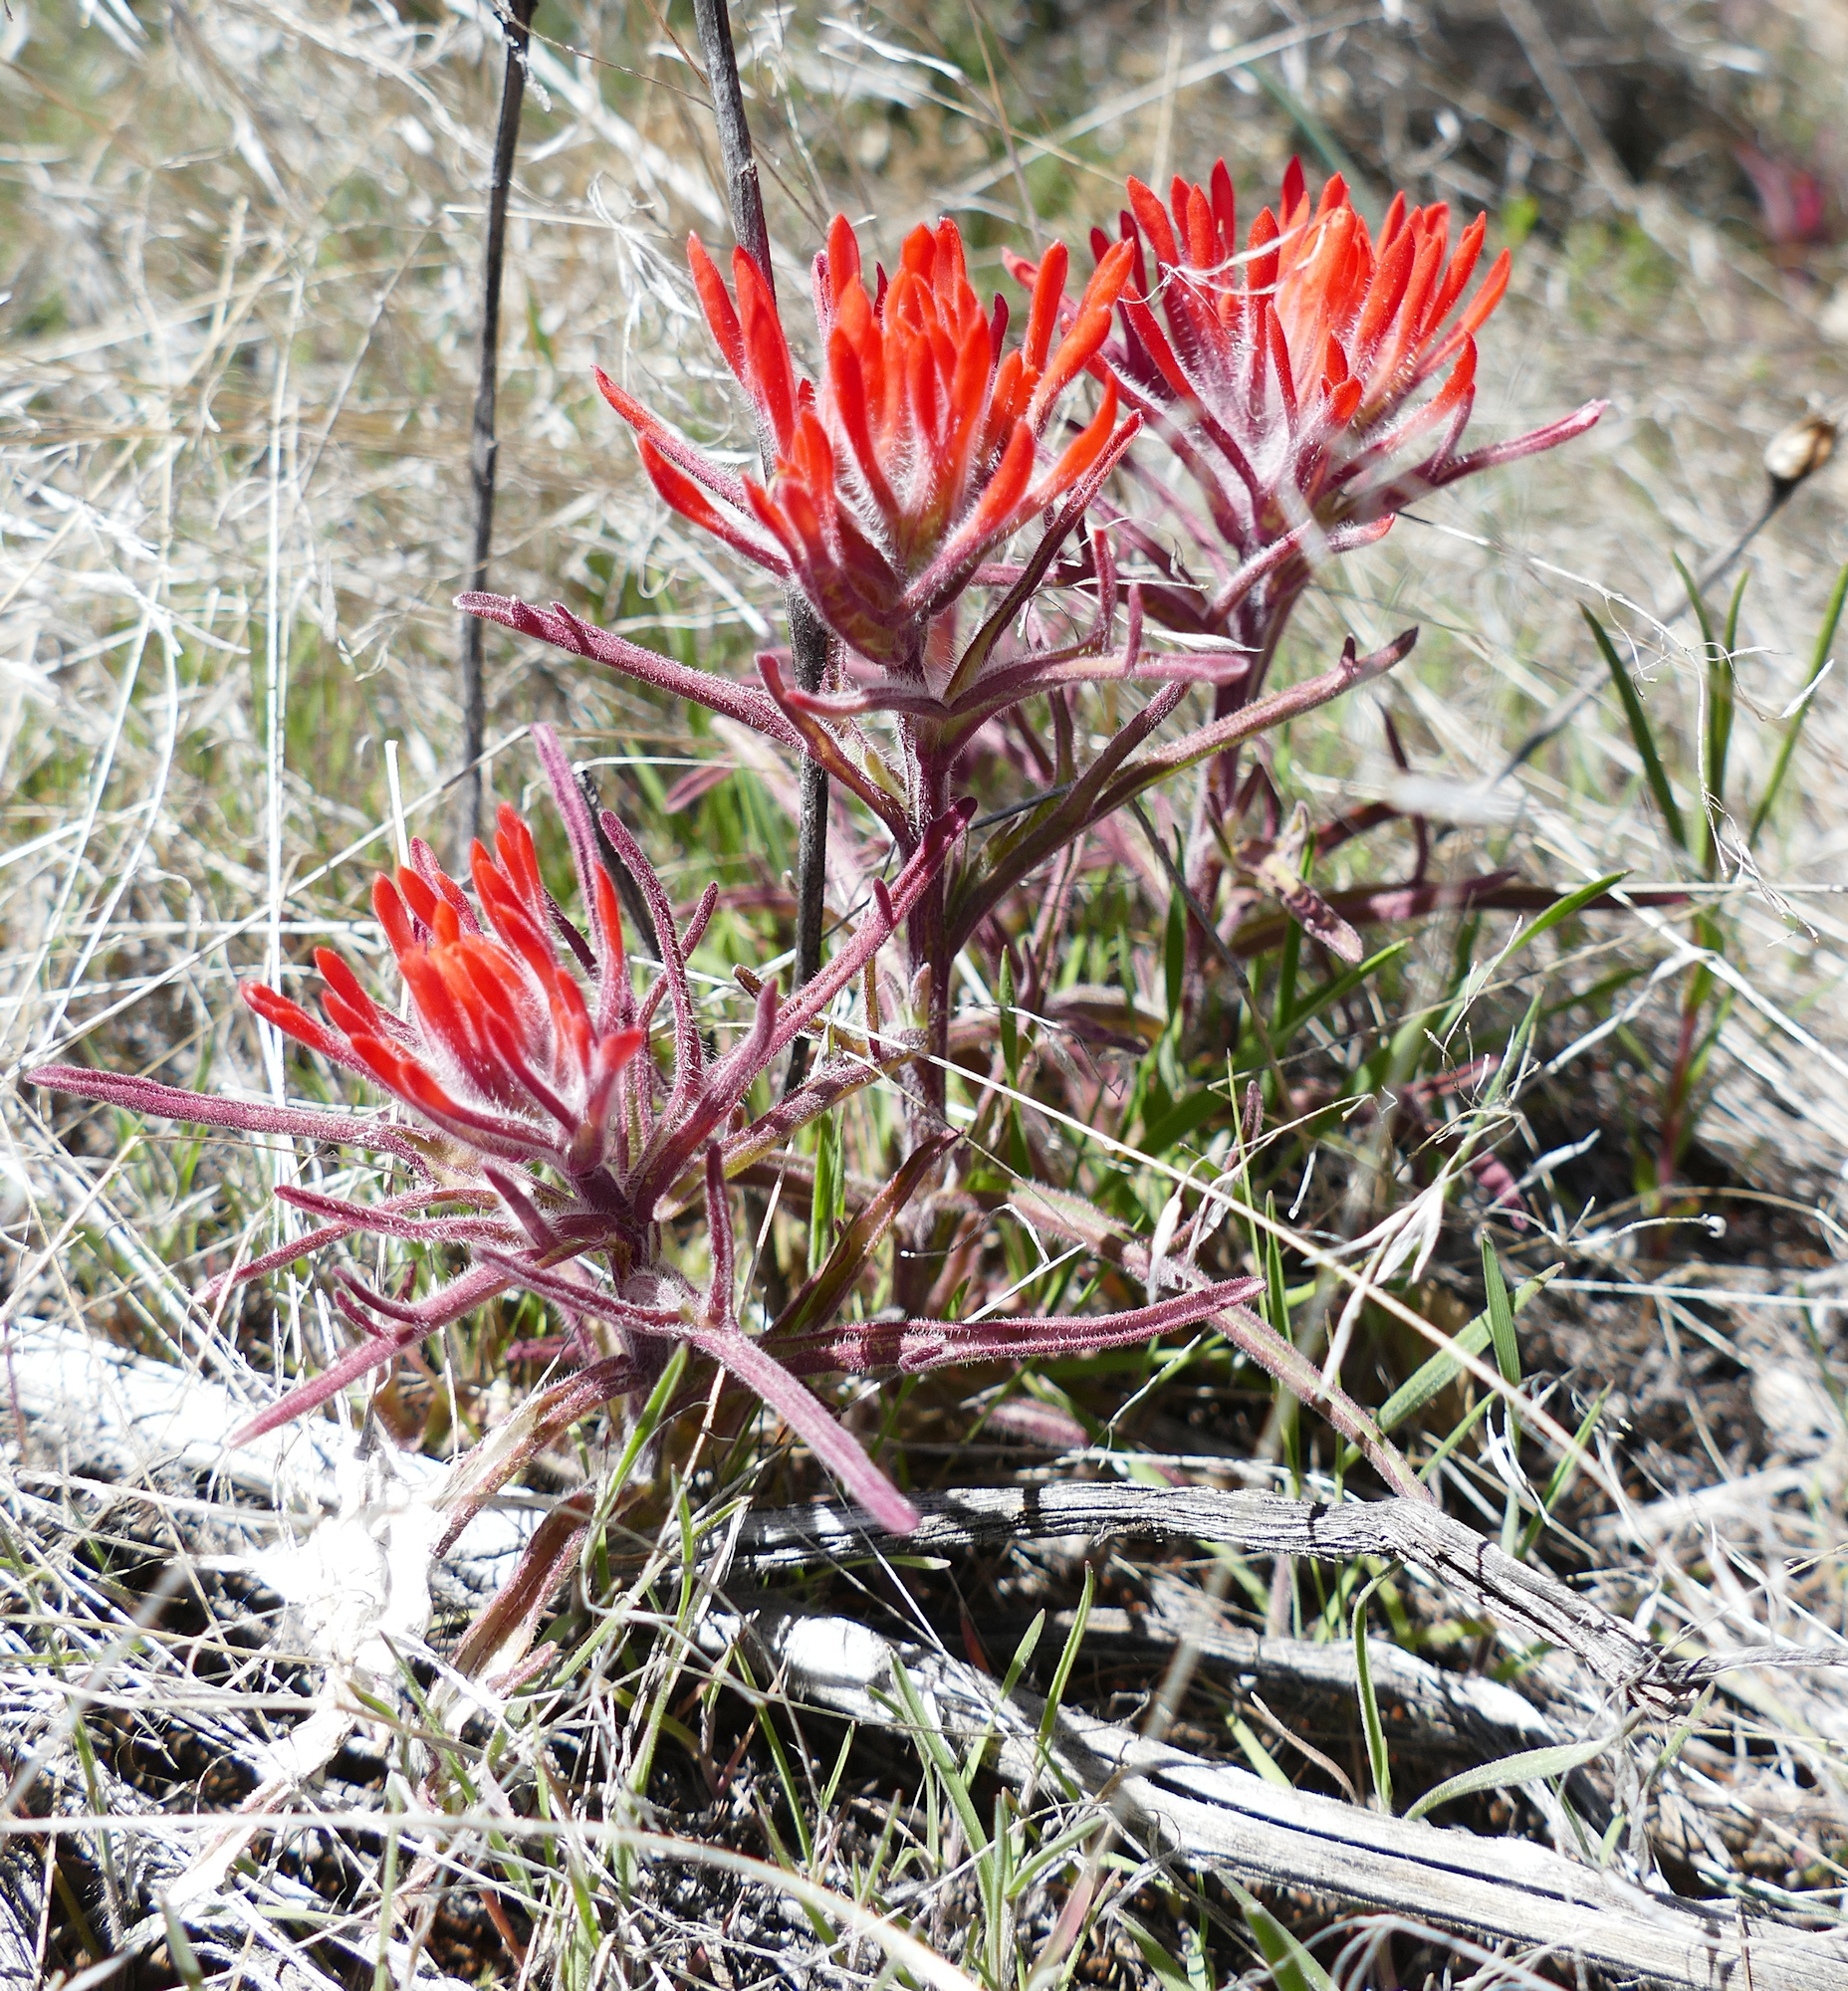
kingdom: Plantae
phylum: Tracheophyta
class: Magnoliopsida
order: Lamiales
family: Orobanchaceae
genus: Castilleja
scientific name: Castilleja scabrida
